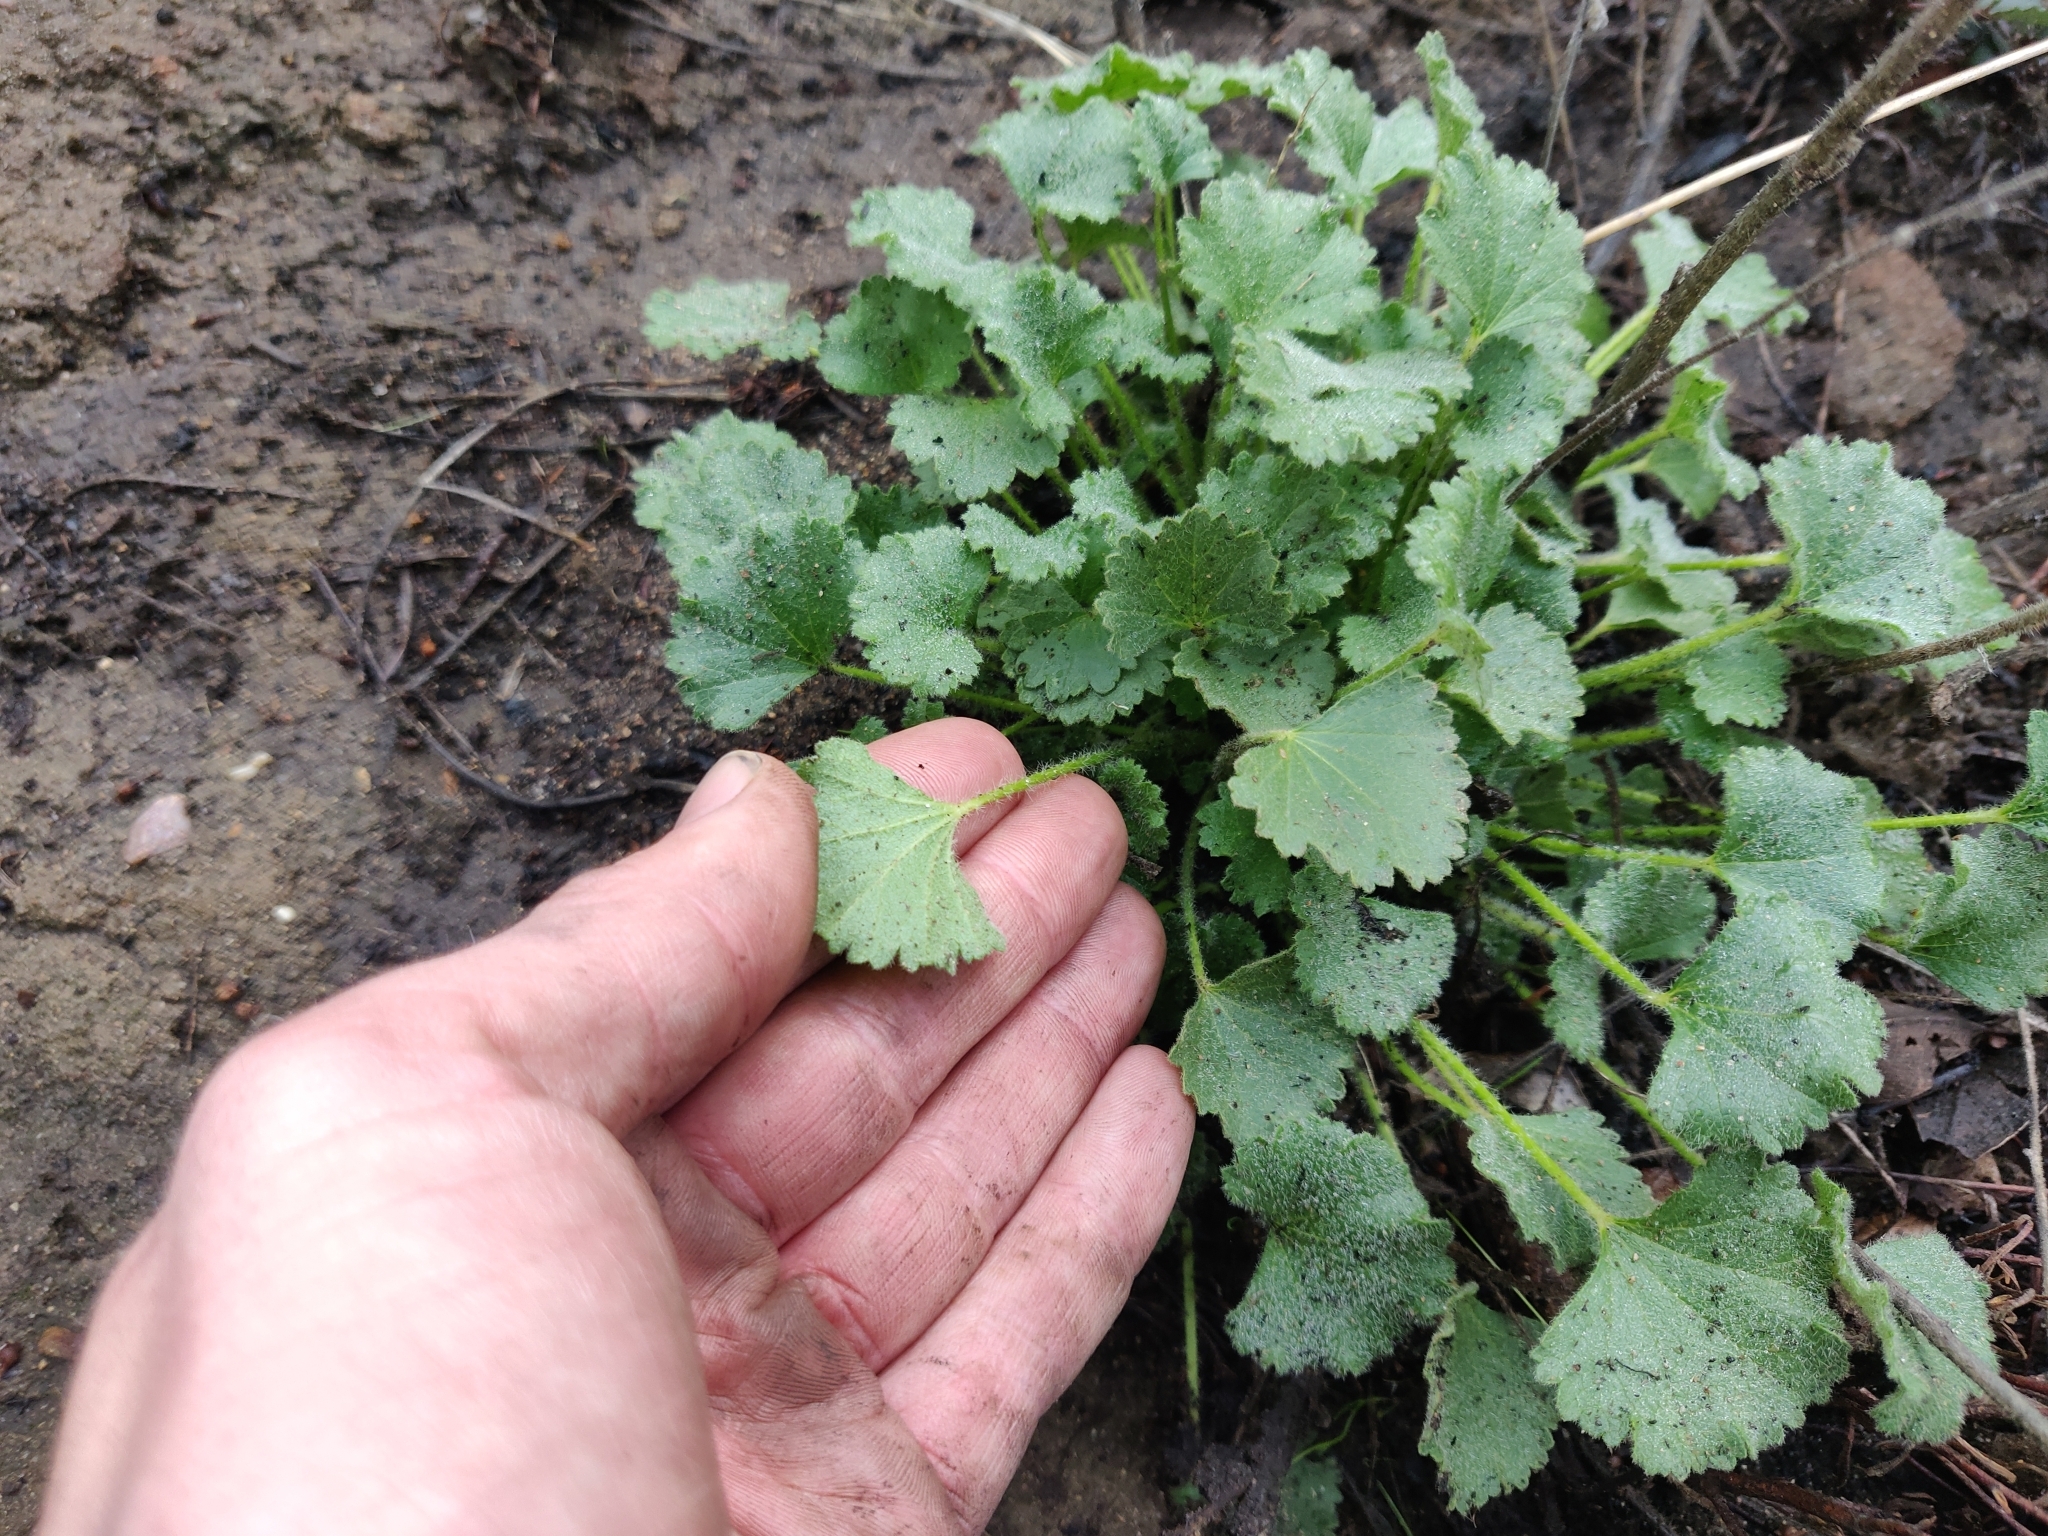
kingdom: Plantae
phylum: Tracheophyta
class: Magnoliopsida
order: Malvales
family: Malvaceae
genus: Sidalcea
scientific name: Sidalcea hickmanii
